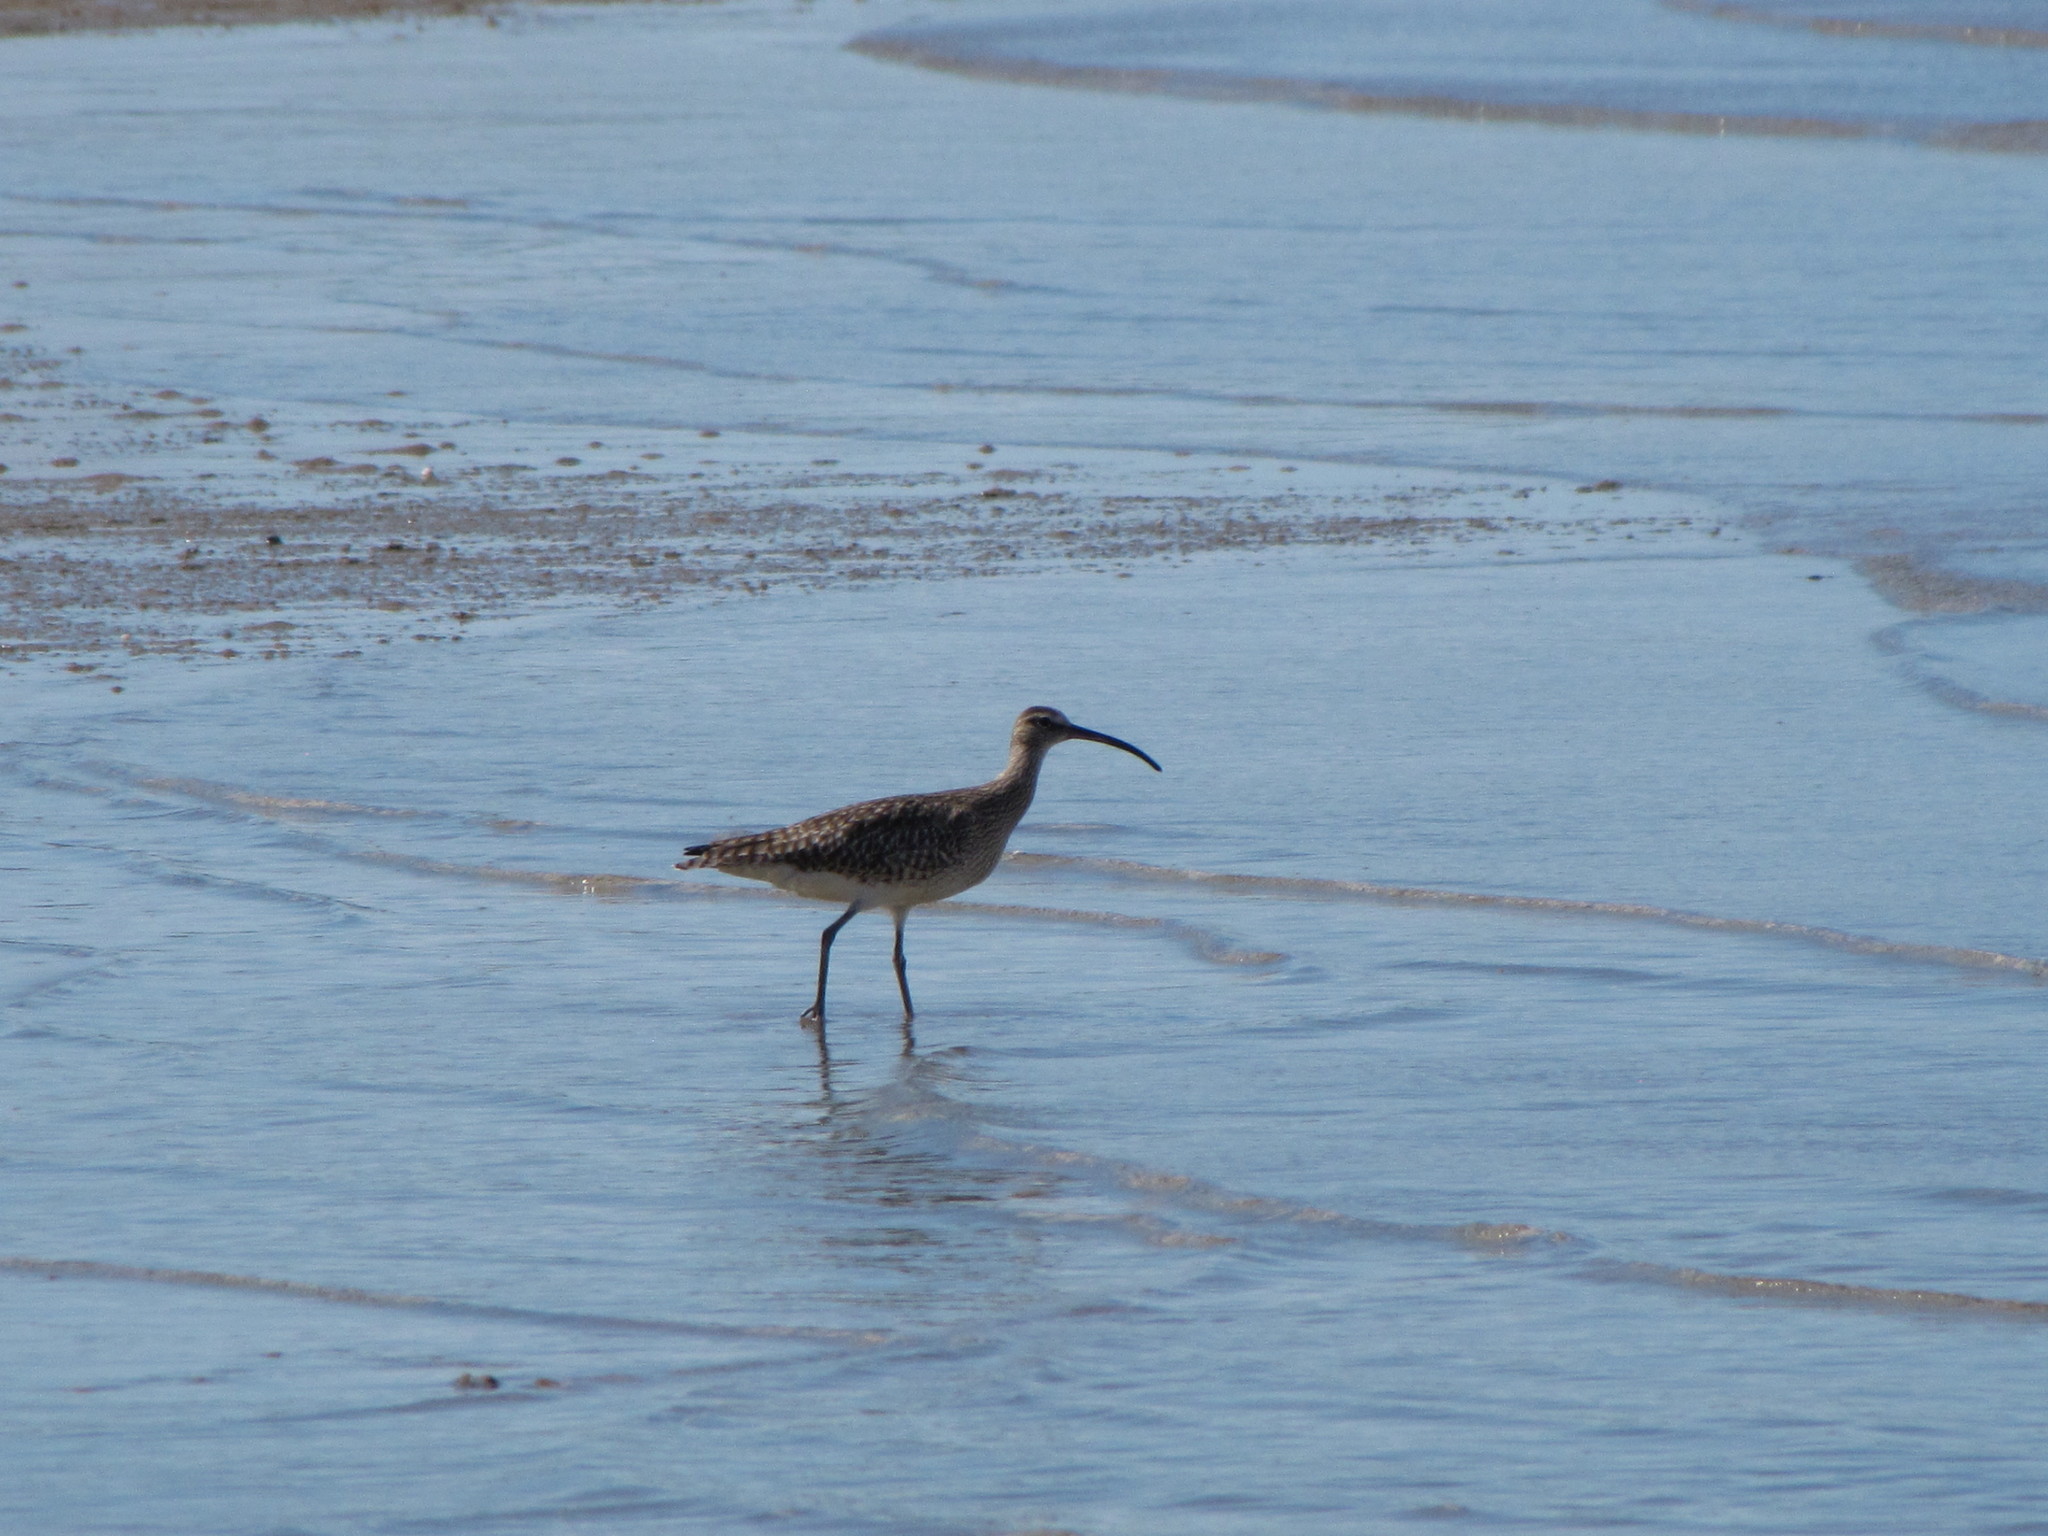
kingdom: Animalia
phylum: Chordata
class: Aves
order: Charadriiformes
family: Scolopacidae
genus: Numenius
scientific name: Numenius phaeopus
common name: Whimbrel
